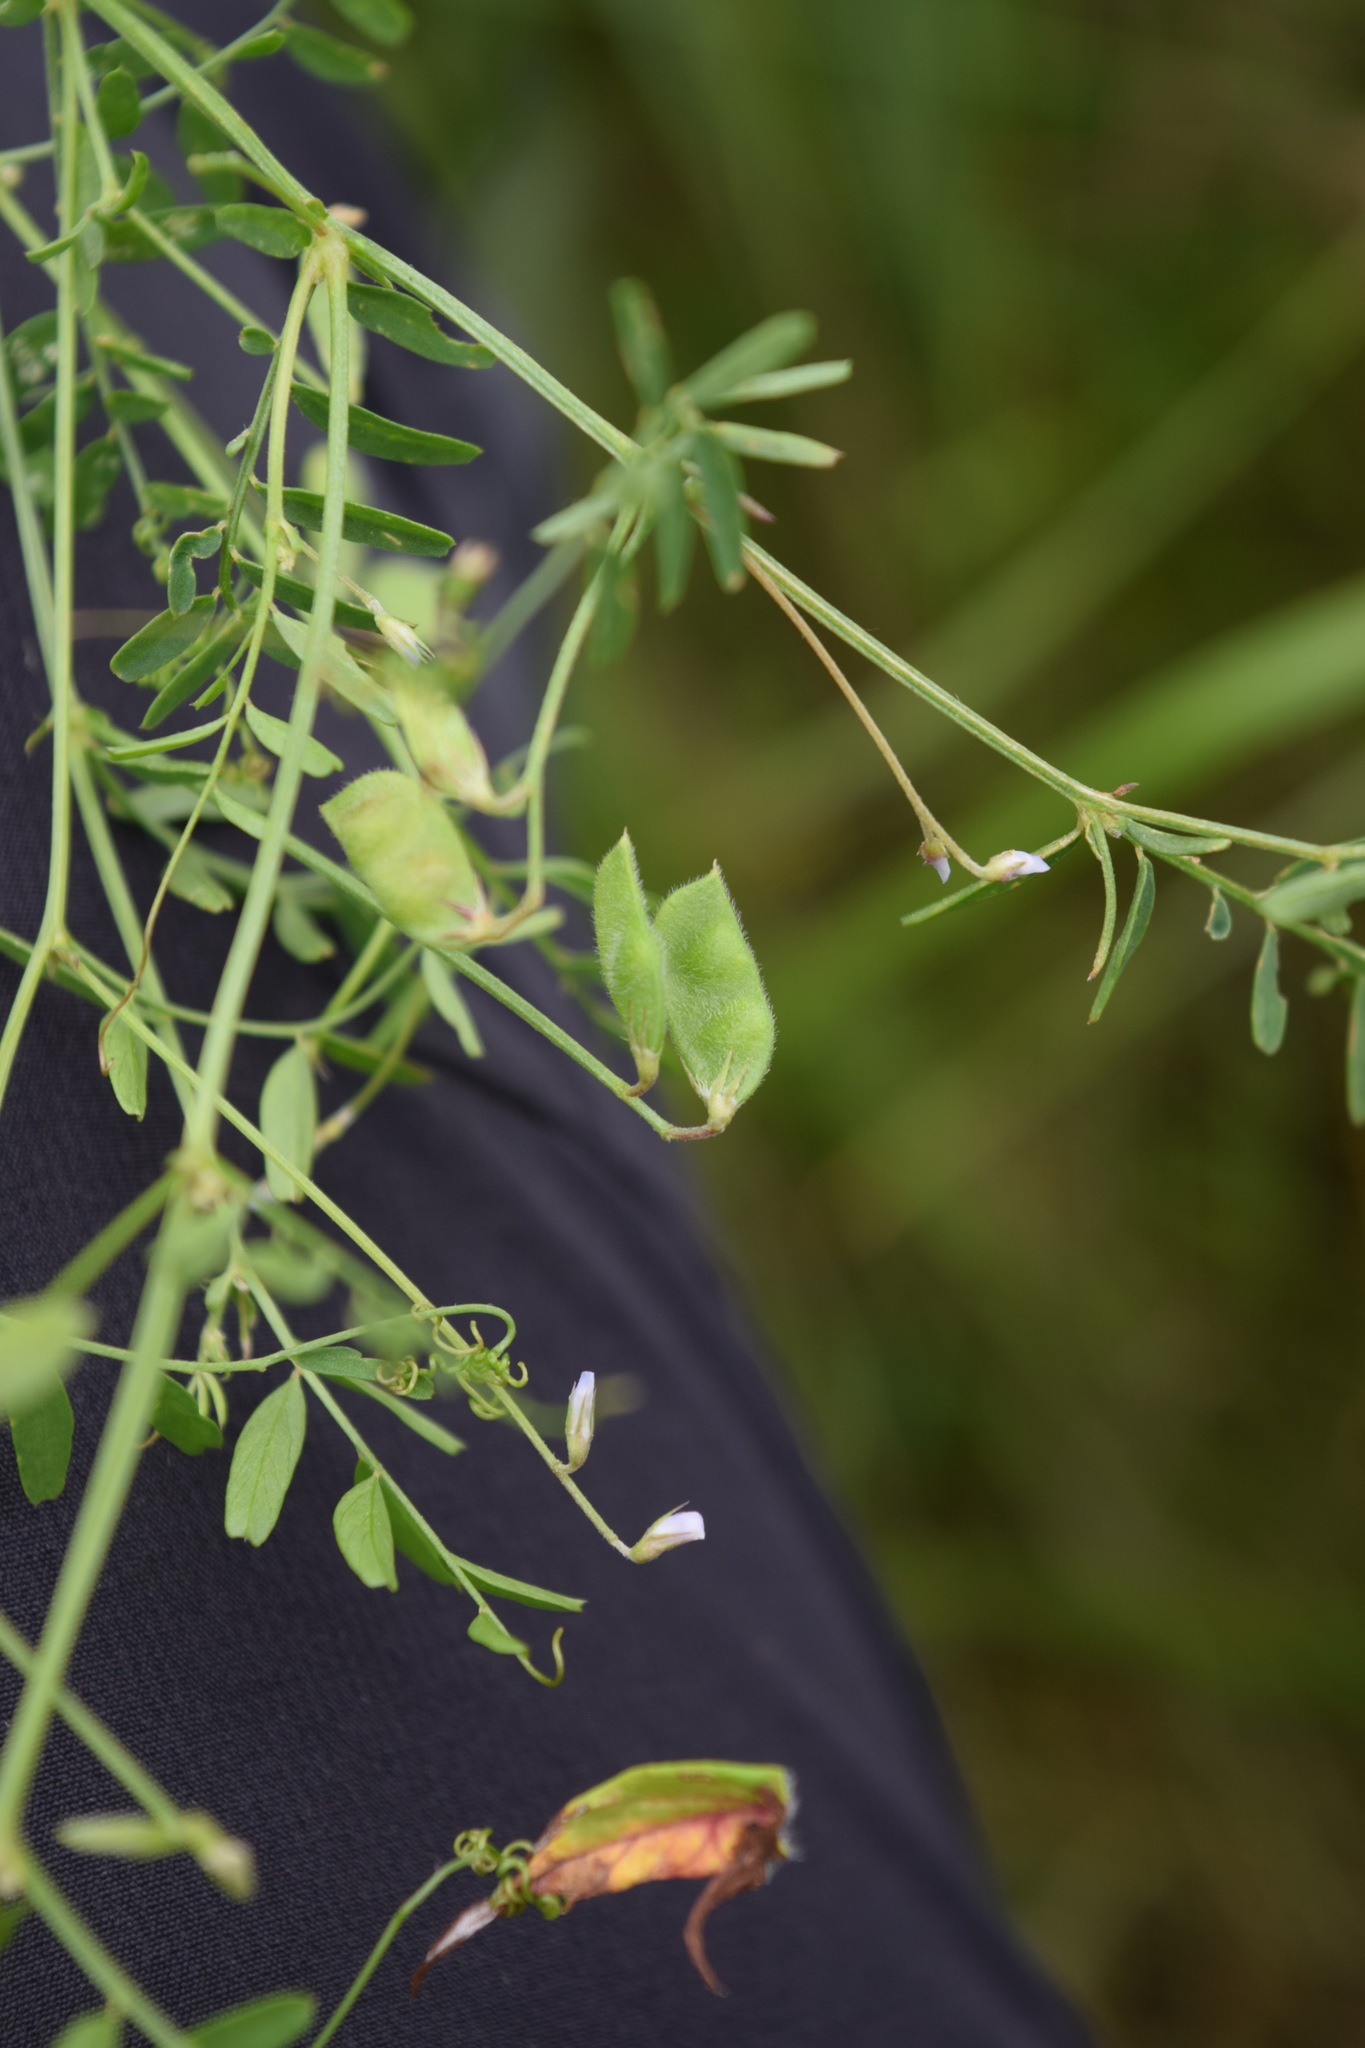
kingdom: Plantae
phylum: Tracheophyta
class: Magnoliopsida
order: Fabales
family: Fabaceae
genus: Vicia
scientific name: Vicia hirsuta
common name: Tiny vetch
